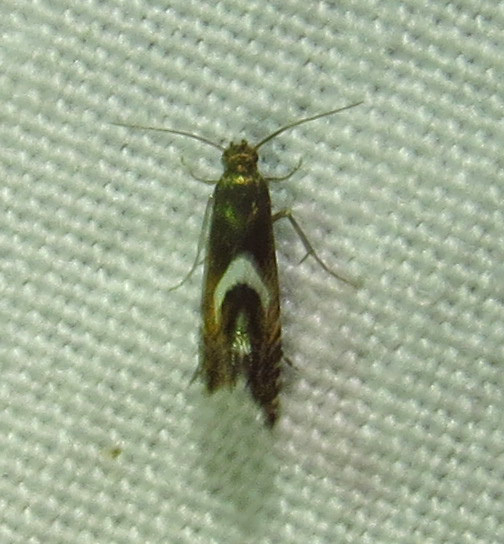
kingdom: Animalia
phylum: Arthropoda
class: Insecta
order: Lepidoptera
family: Glyphipterigidae
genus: Glyphipterix
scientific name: Glyphipterix Diploschizia impigritella
